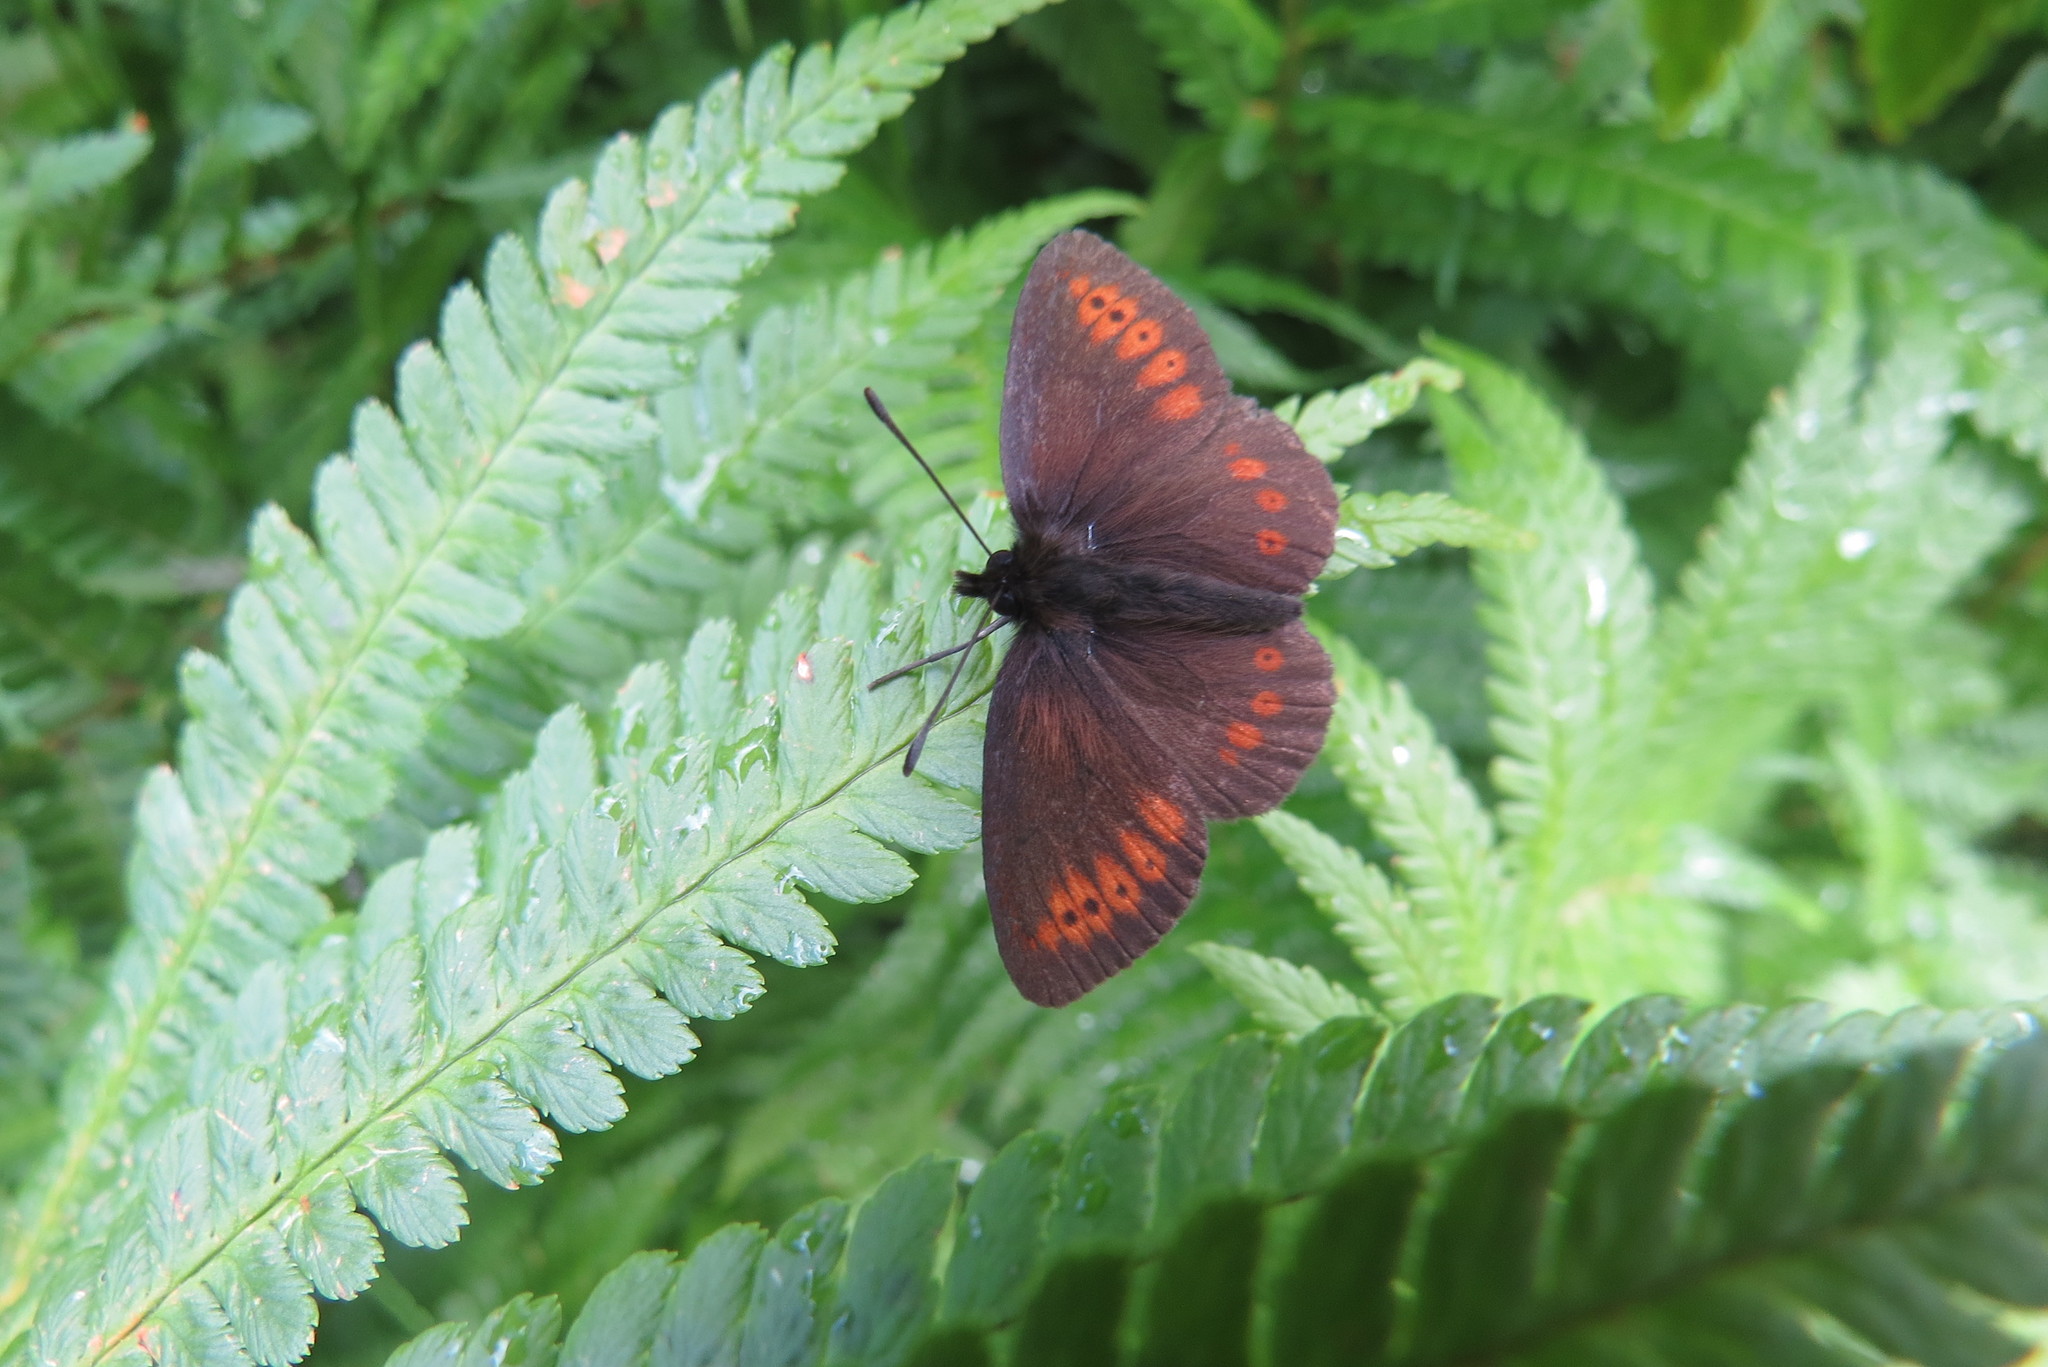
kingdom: Animalia
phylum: Arthropoda
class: Insecta
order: Lepidoptera
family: Nymphalidae
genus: Erebia
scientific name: Erebia alberganus
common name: Almond-eyed ringlet
